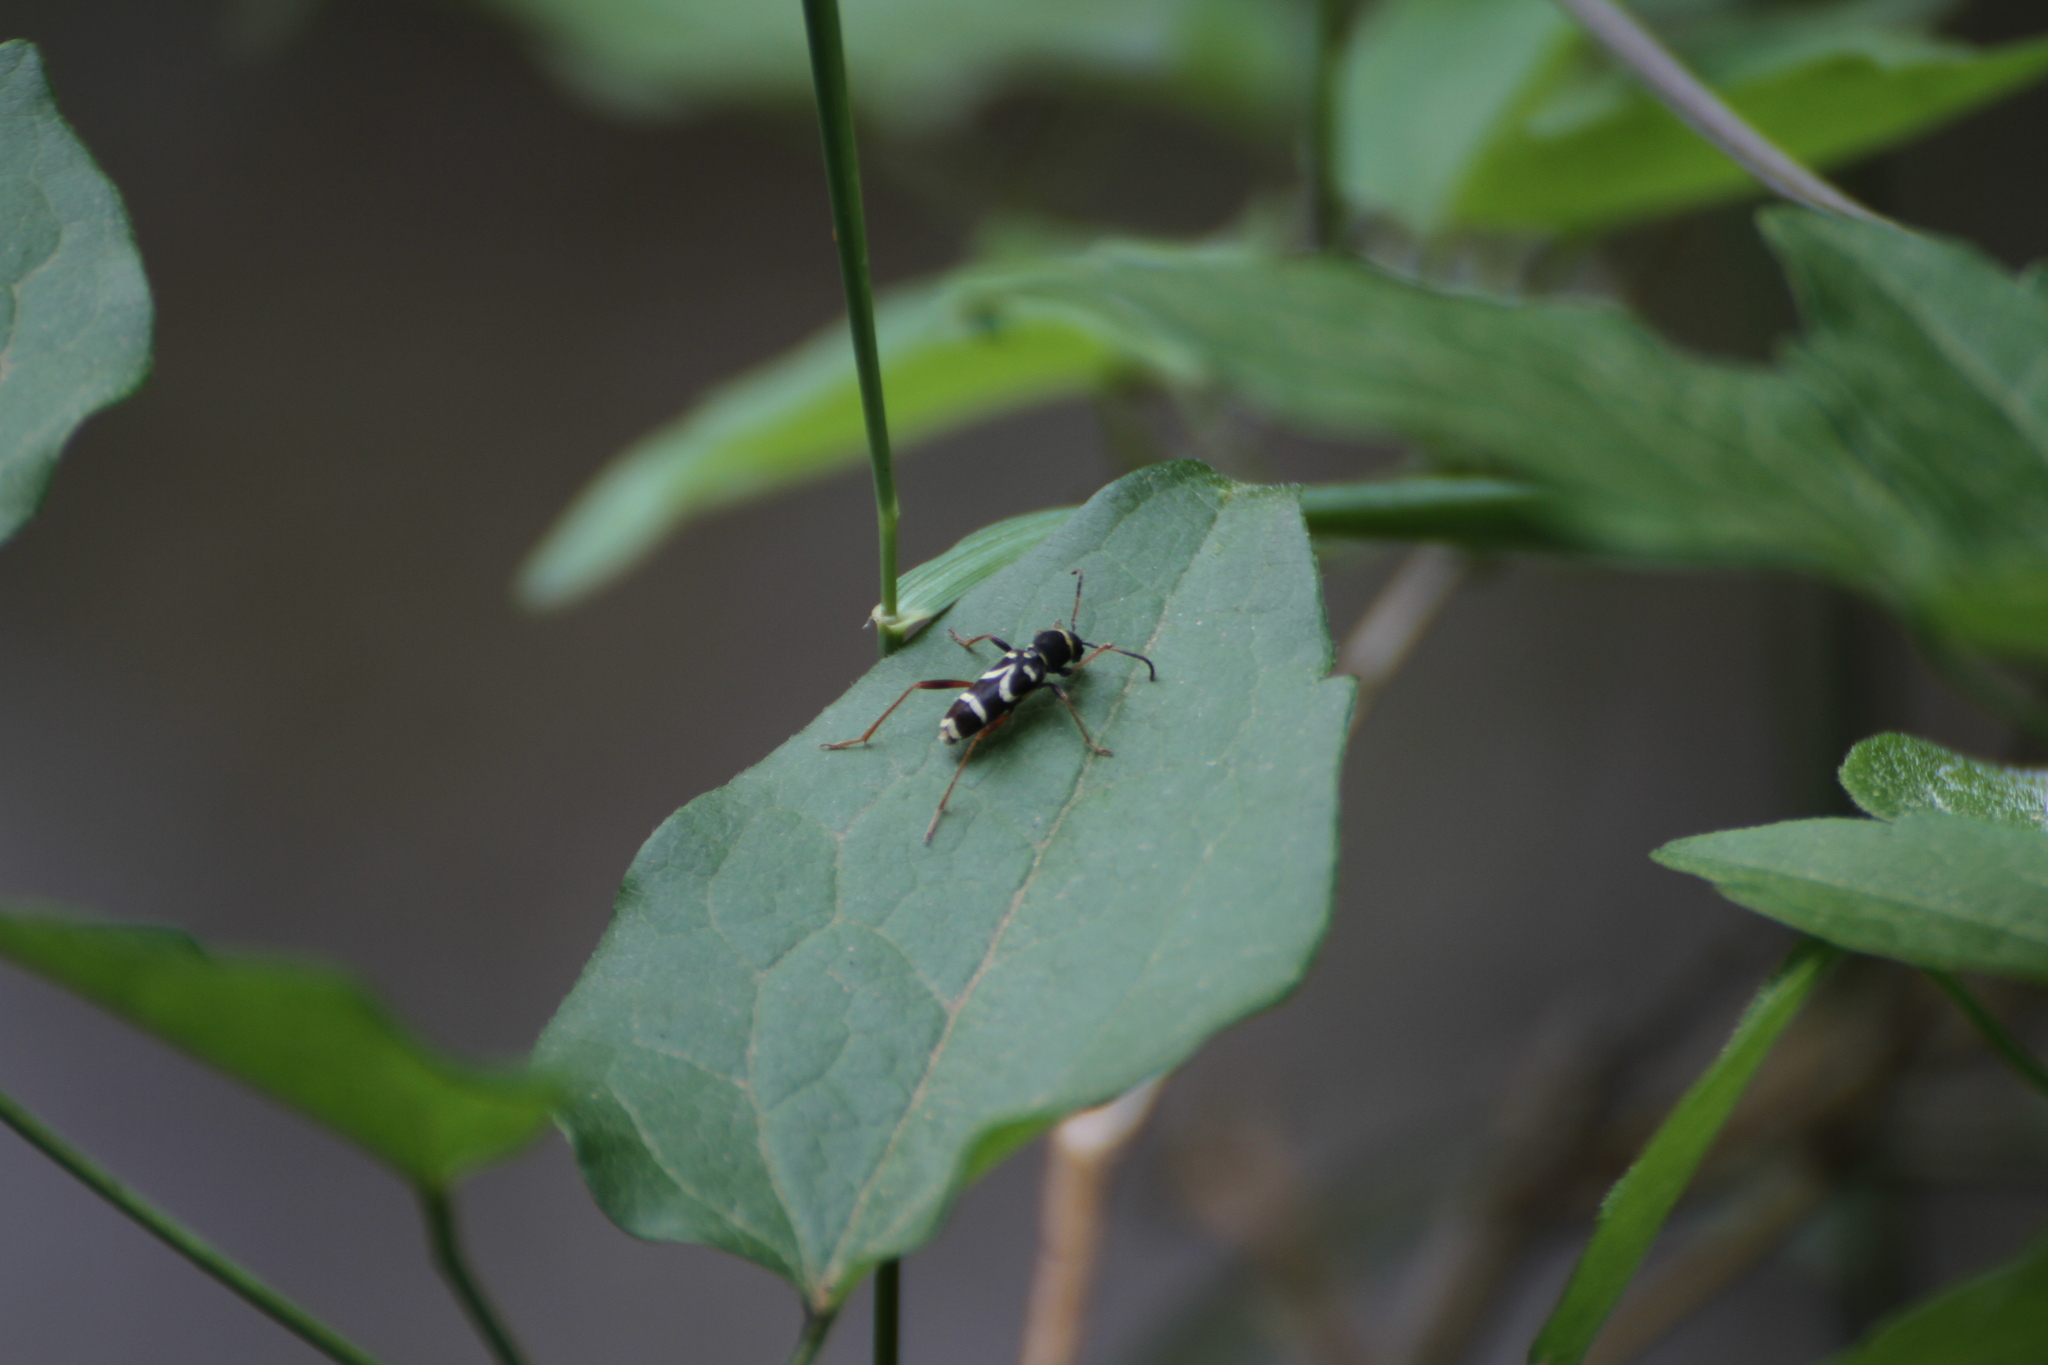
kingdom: Animalia
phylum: Arthropoda
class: Insecta
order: Coleoptera
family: Cerambycidae
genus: Clytus
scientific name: Clytus arietis
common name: Wasp beetle
